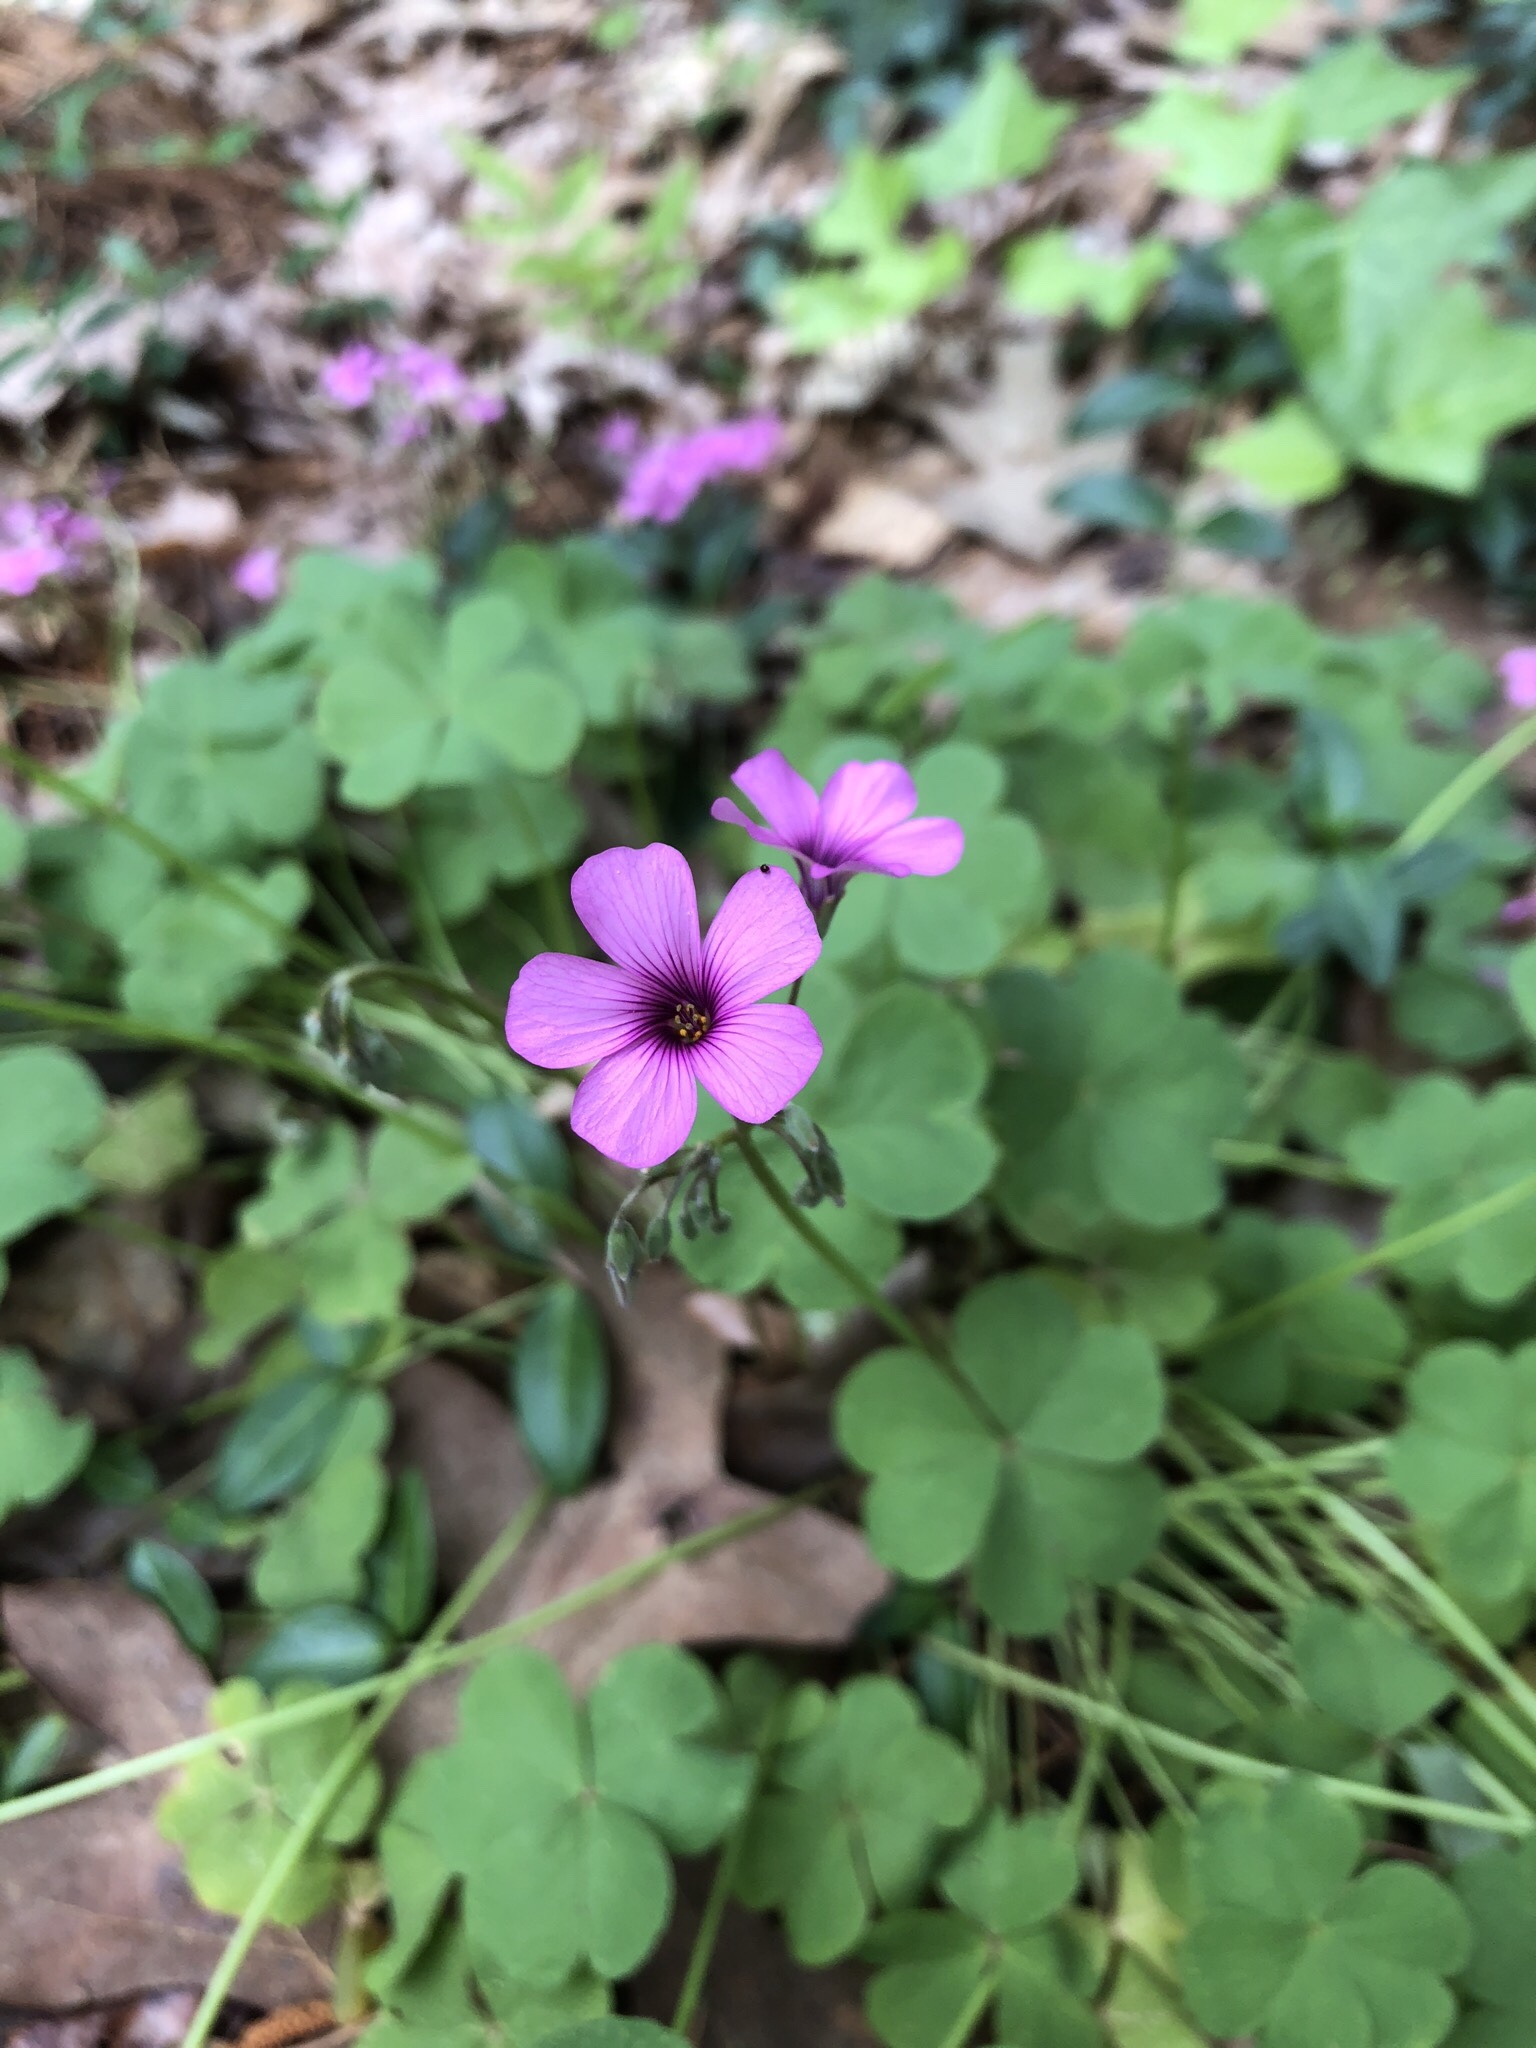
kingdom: Plantae
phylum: Tracheophyta
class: Magnoliopsida
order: Oxalidales
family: Oxalidaceae
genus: Oxalis
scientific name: Oxalis articulata
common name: Pink-sorrel
